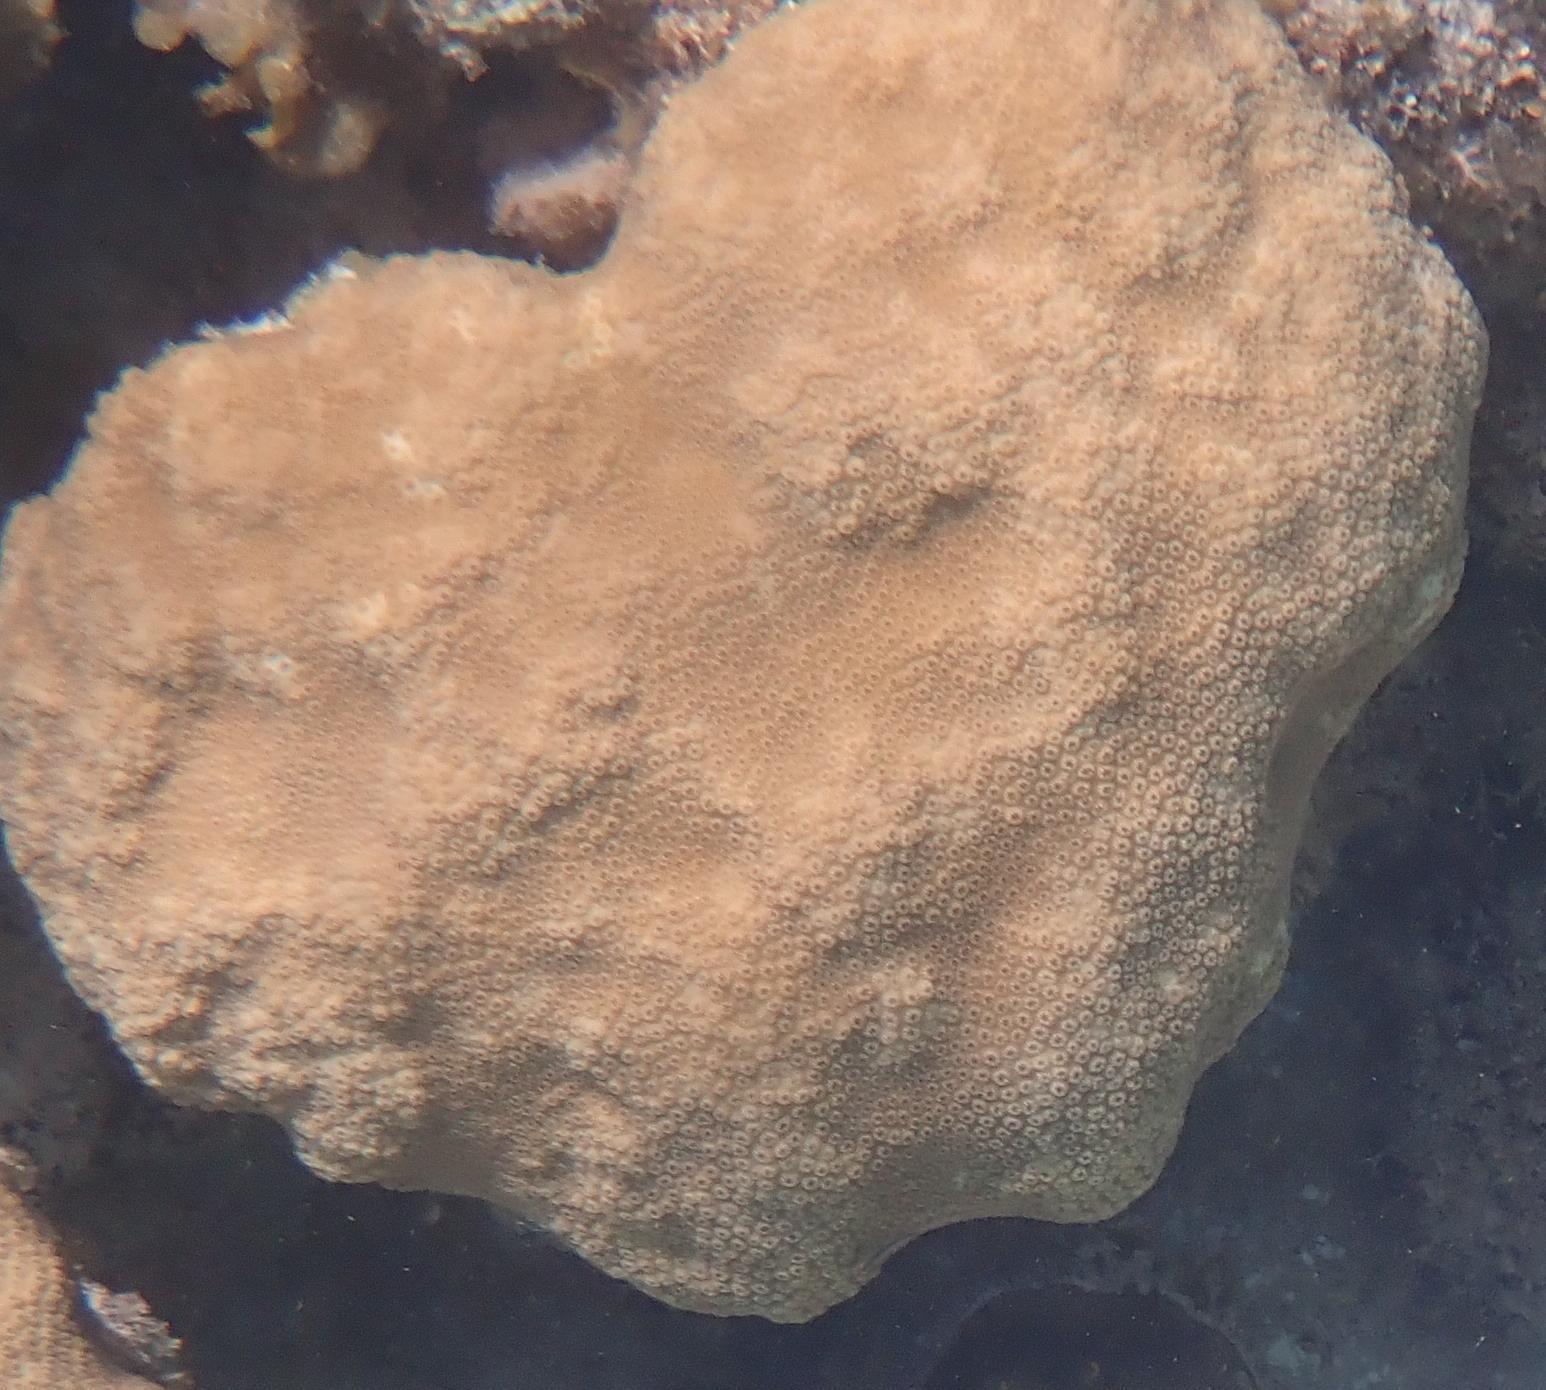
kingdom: Animalia
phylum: Cnidaria
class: Anthozoa
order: Scleractinia
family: Merulinidae
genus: Orbicella
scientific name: Orbicella faveolata
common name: Mountainous star coral
